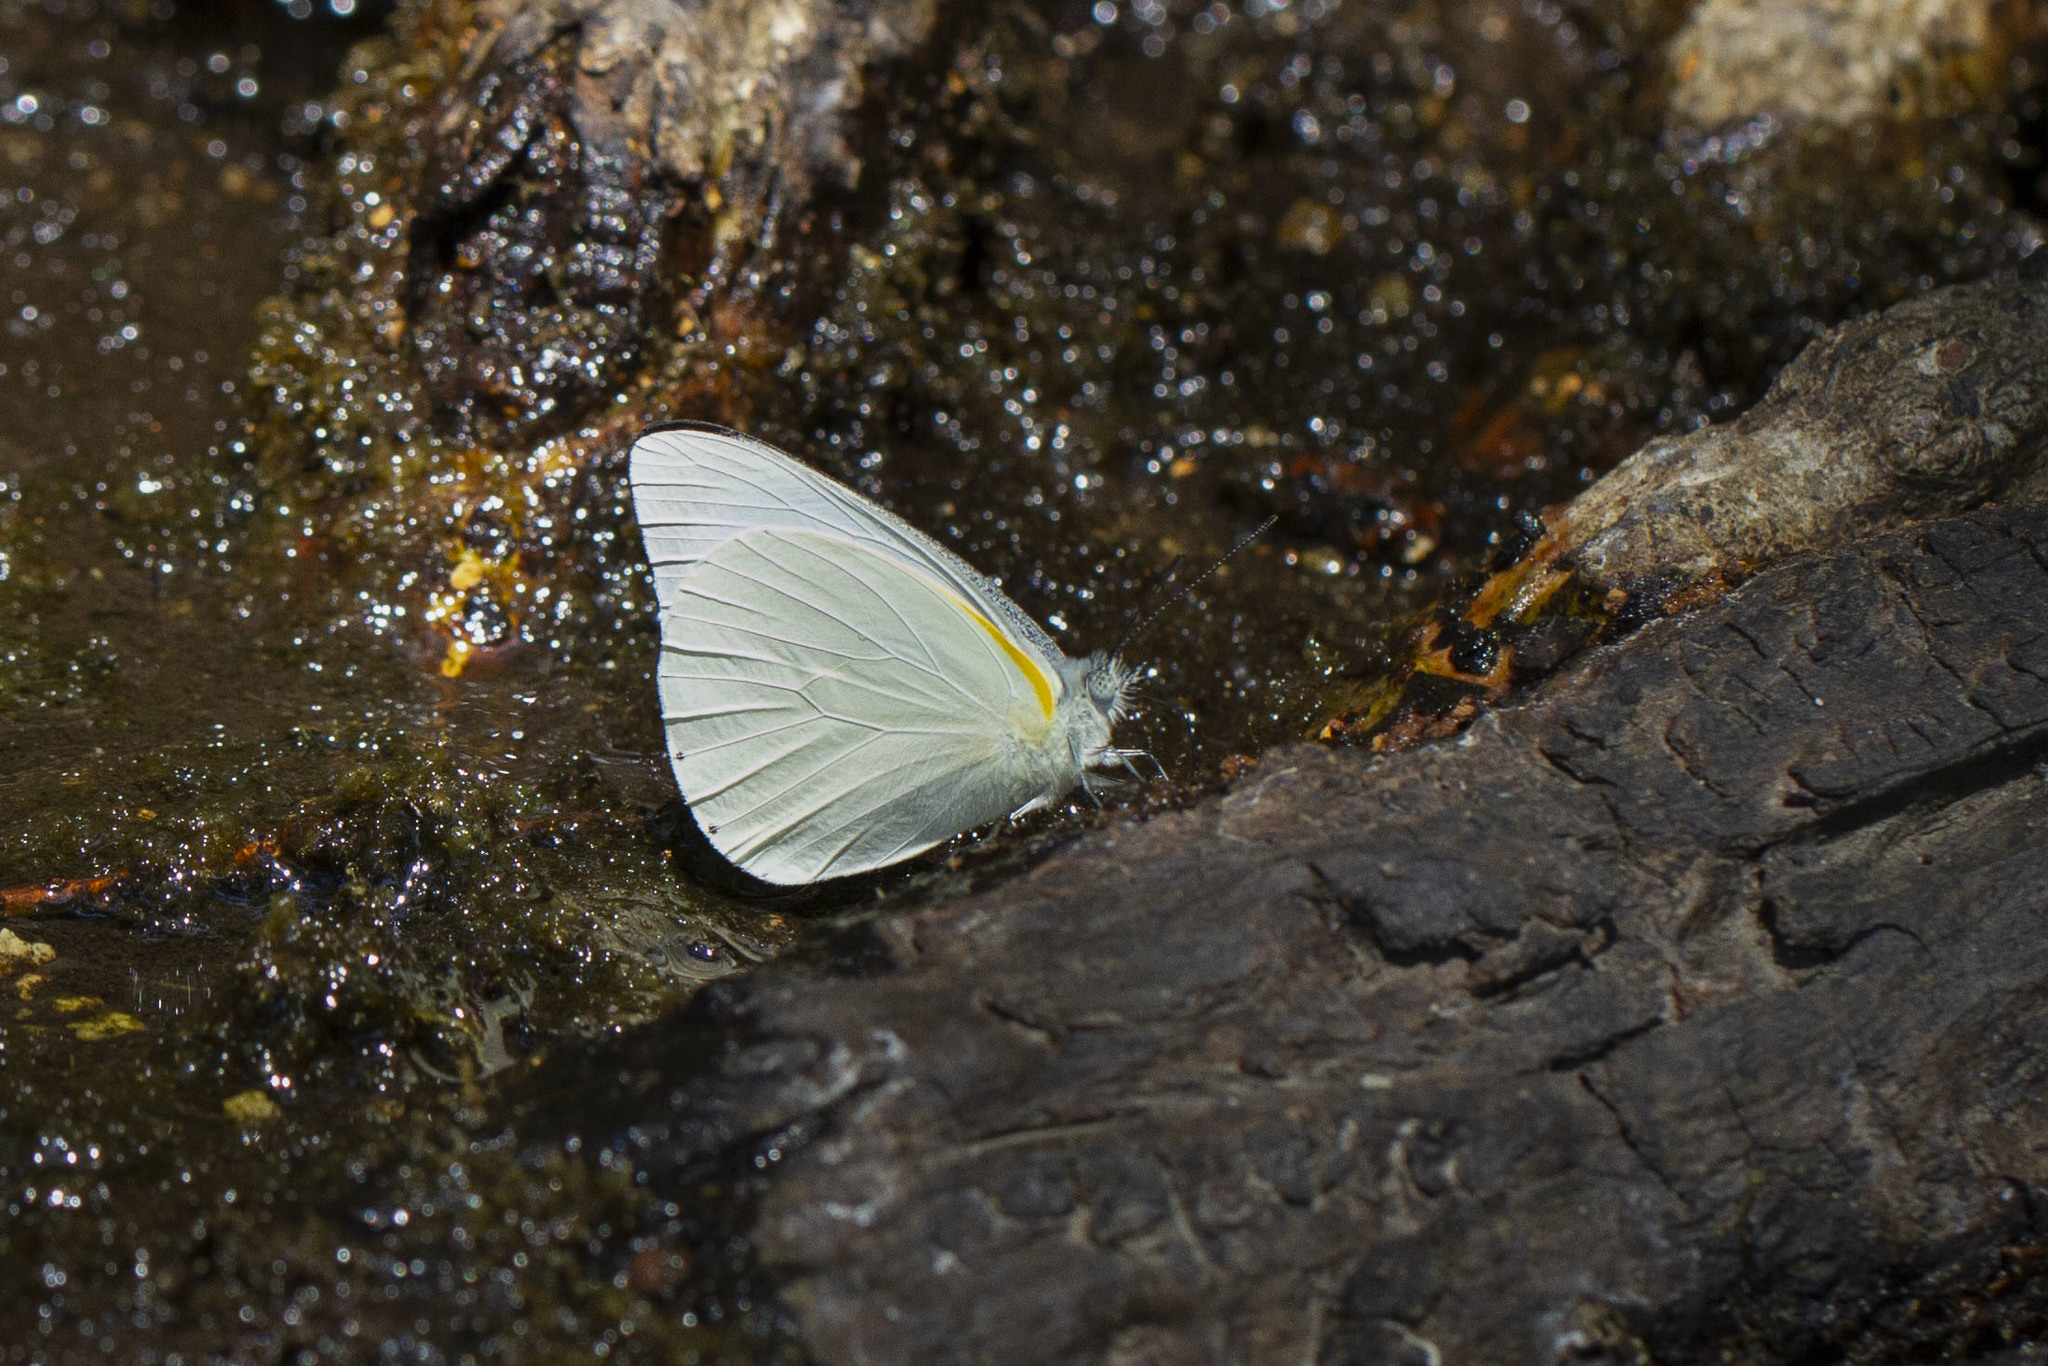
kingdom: Animalia
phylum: Arthropoda
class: Insecta
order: Lepidoptera
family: Pieridae
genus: Glutophrissa
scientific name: Glutophrissa sabina
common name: Sabine albatross
